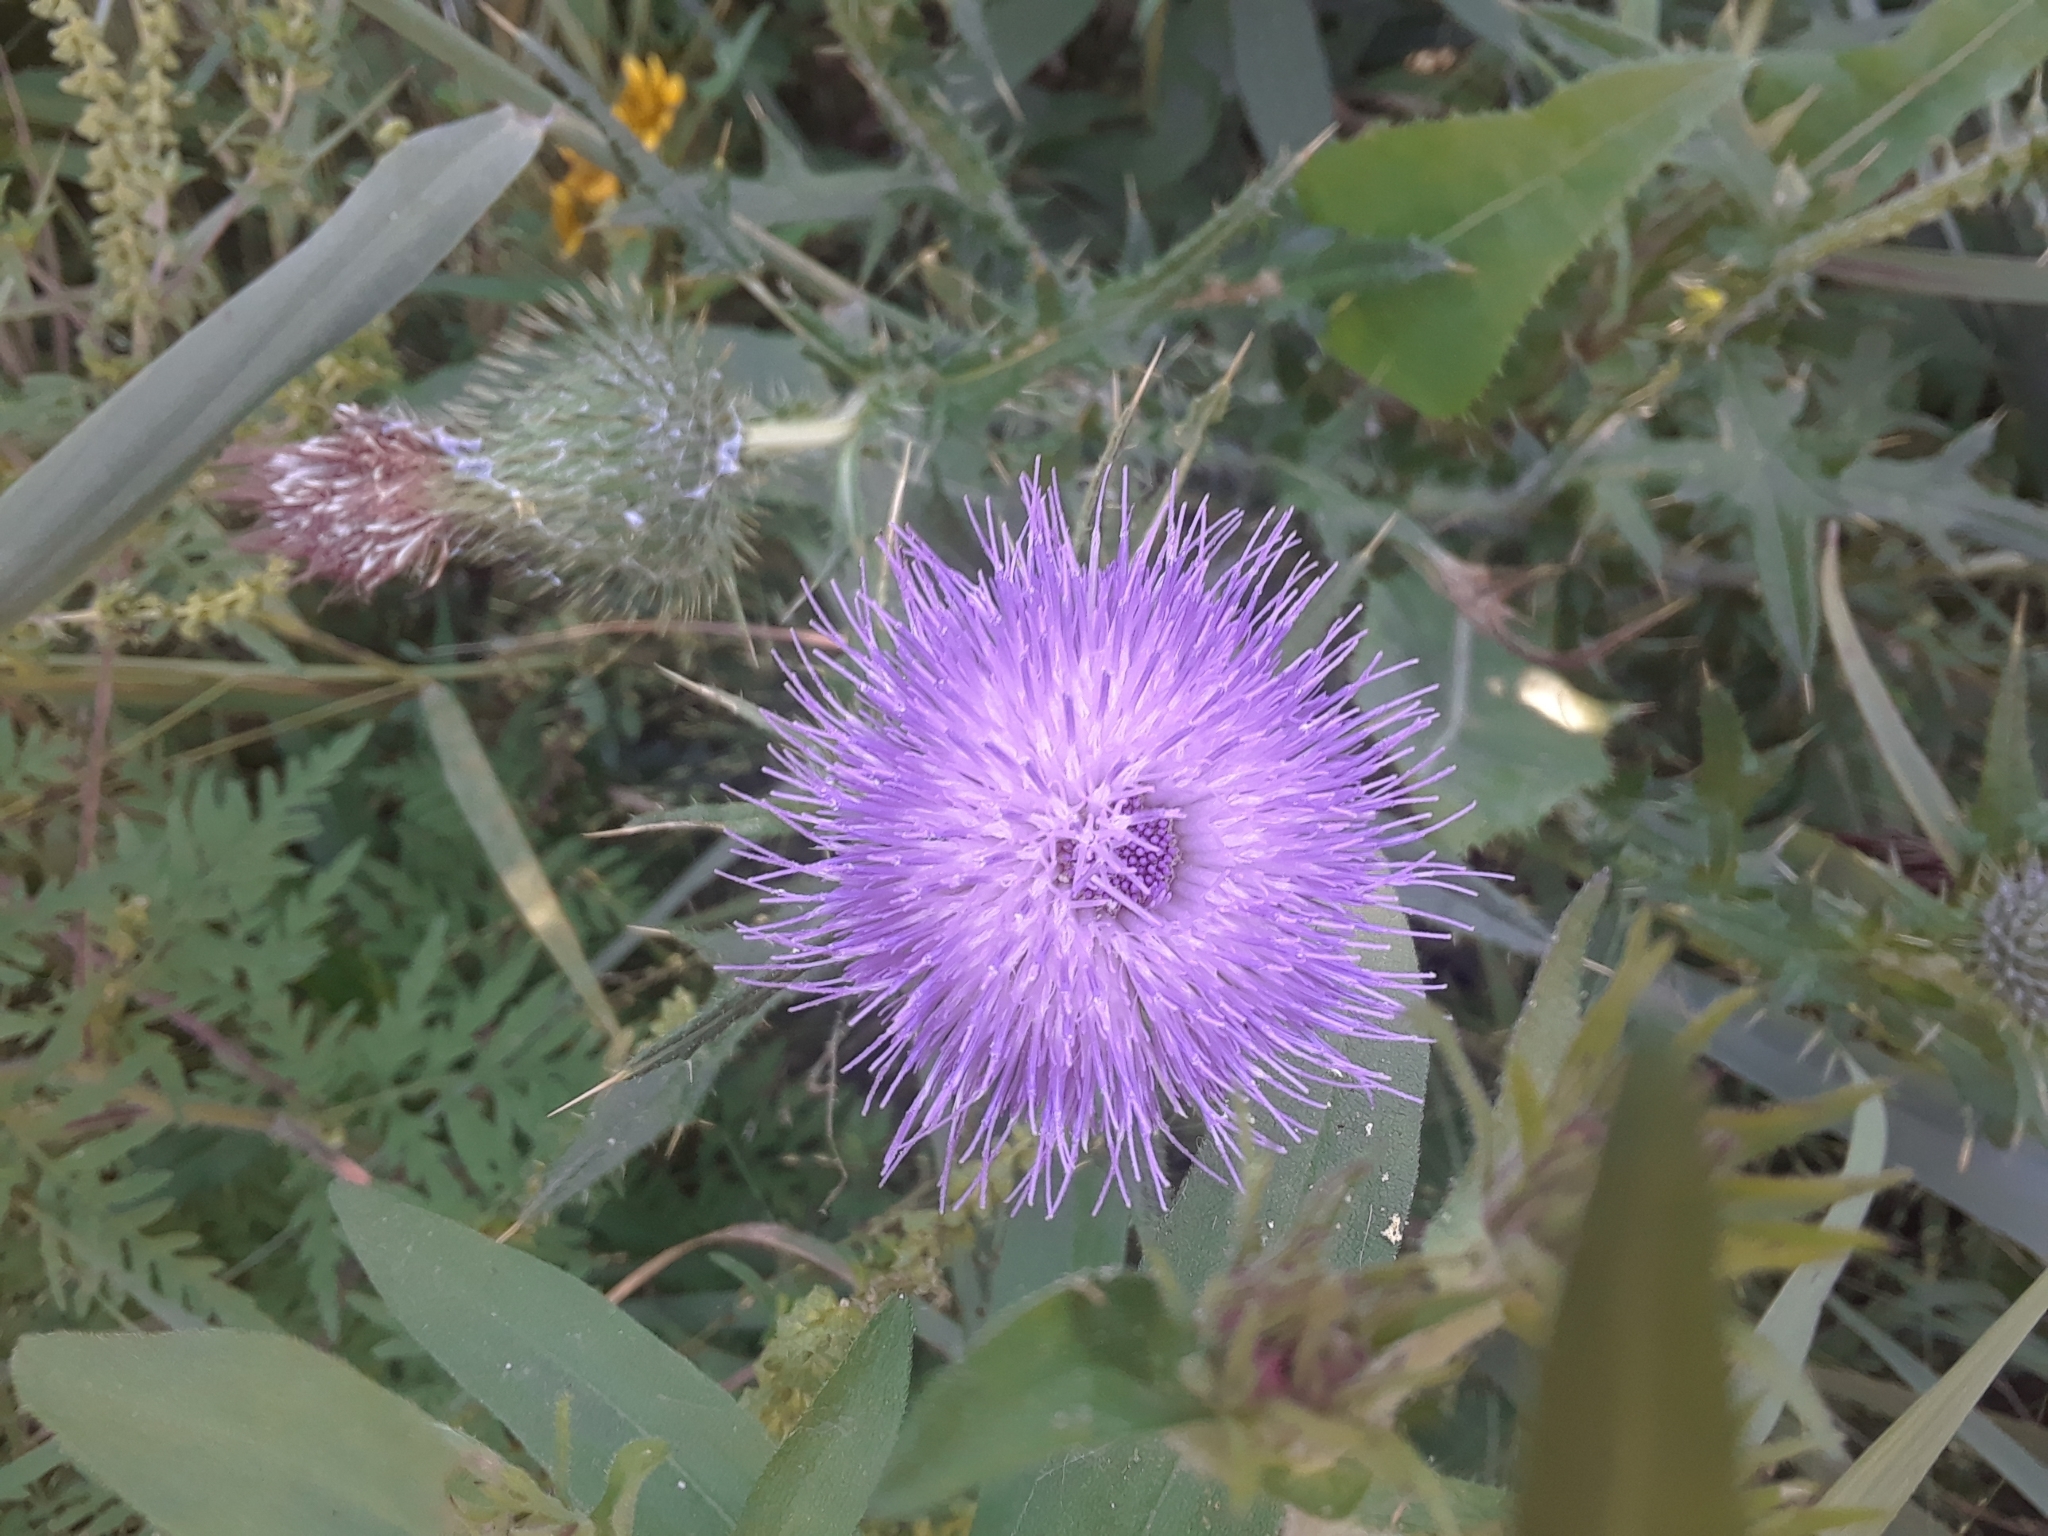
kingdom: Plantae
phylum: Tracheophyta
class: Magnoliopsida
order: Asterales
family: Asteraceae
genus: Cirsium
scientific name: Cirsium vulgare
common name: Bull thistle
